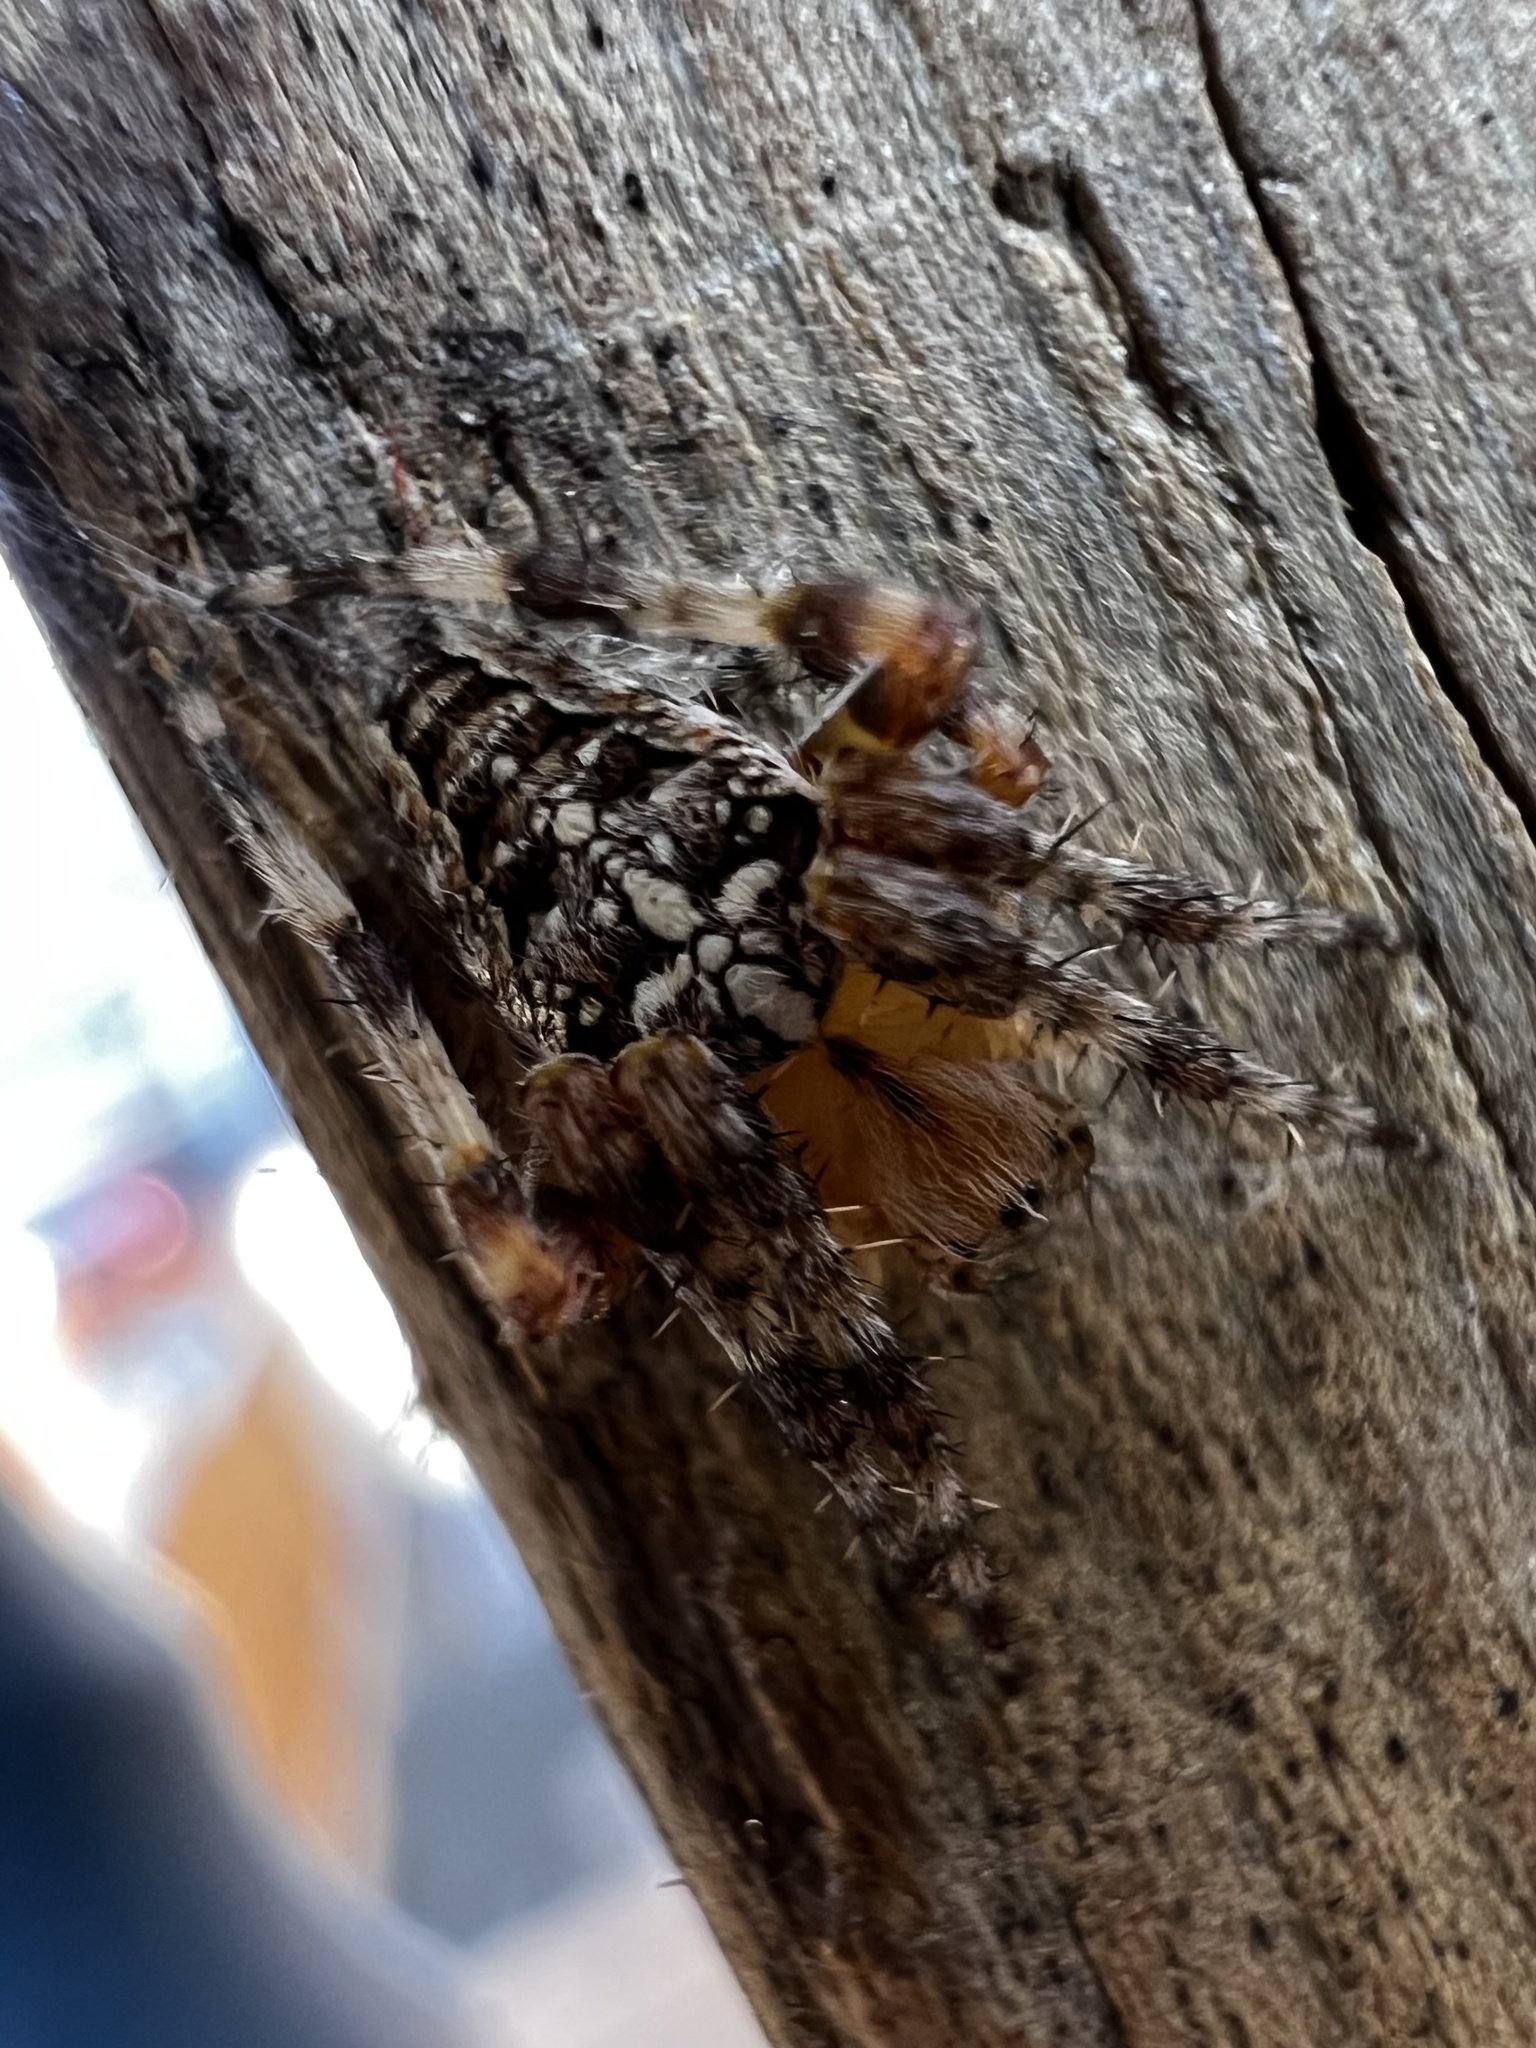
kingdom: Animalia
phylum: Arthropoda
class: Arachnida
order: Araneae
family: Araneidae
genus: Araneus
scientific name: Araneus diadematus
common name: Cross orbweaver
